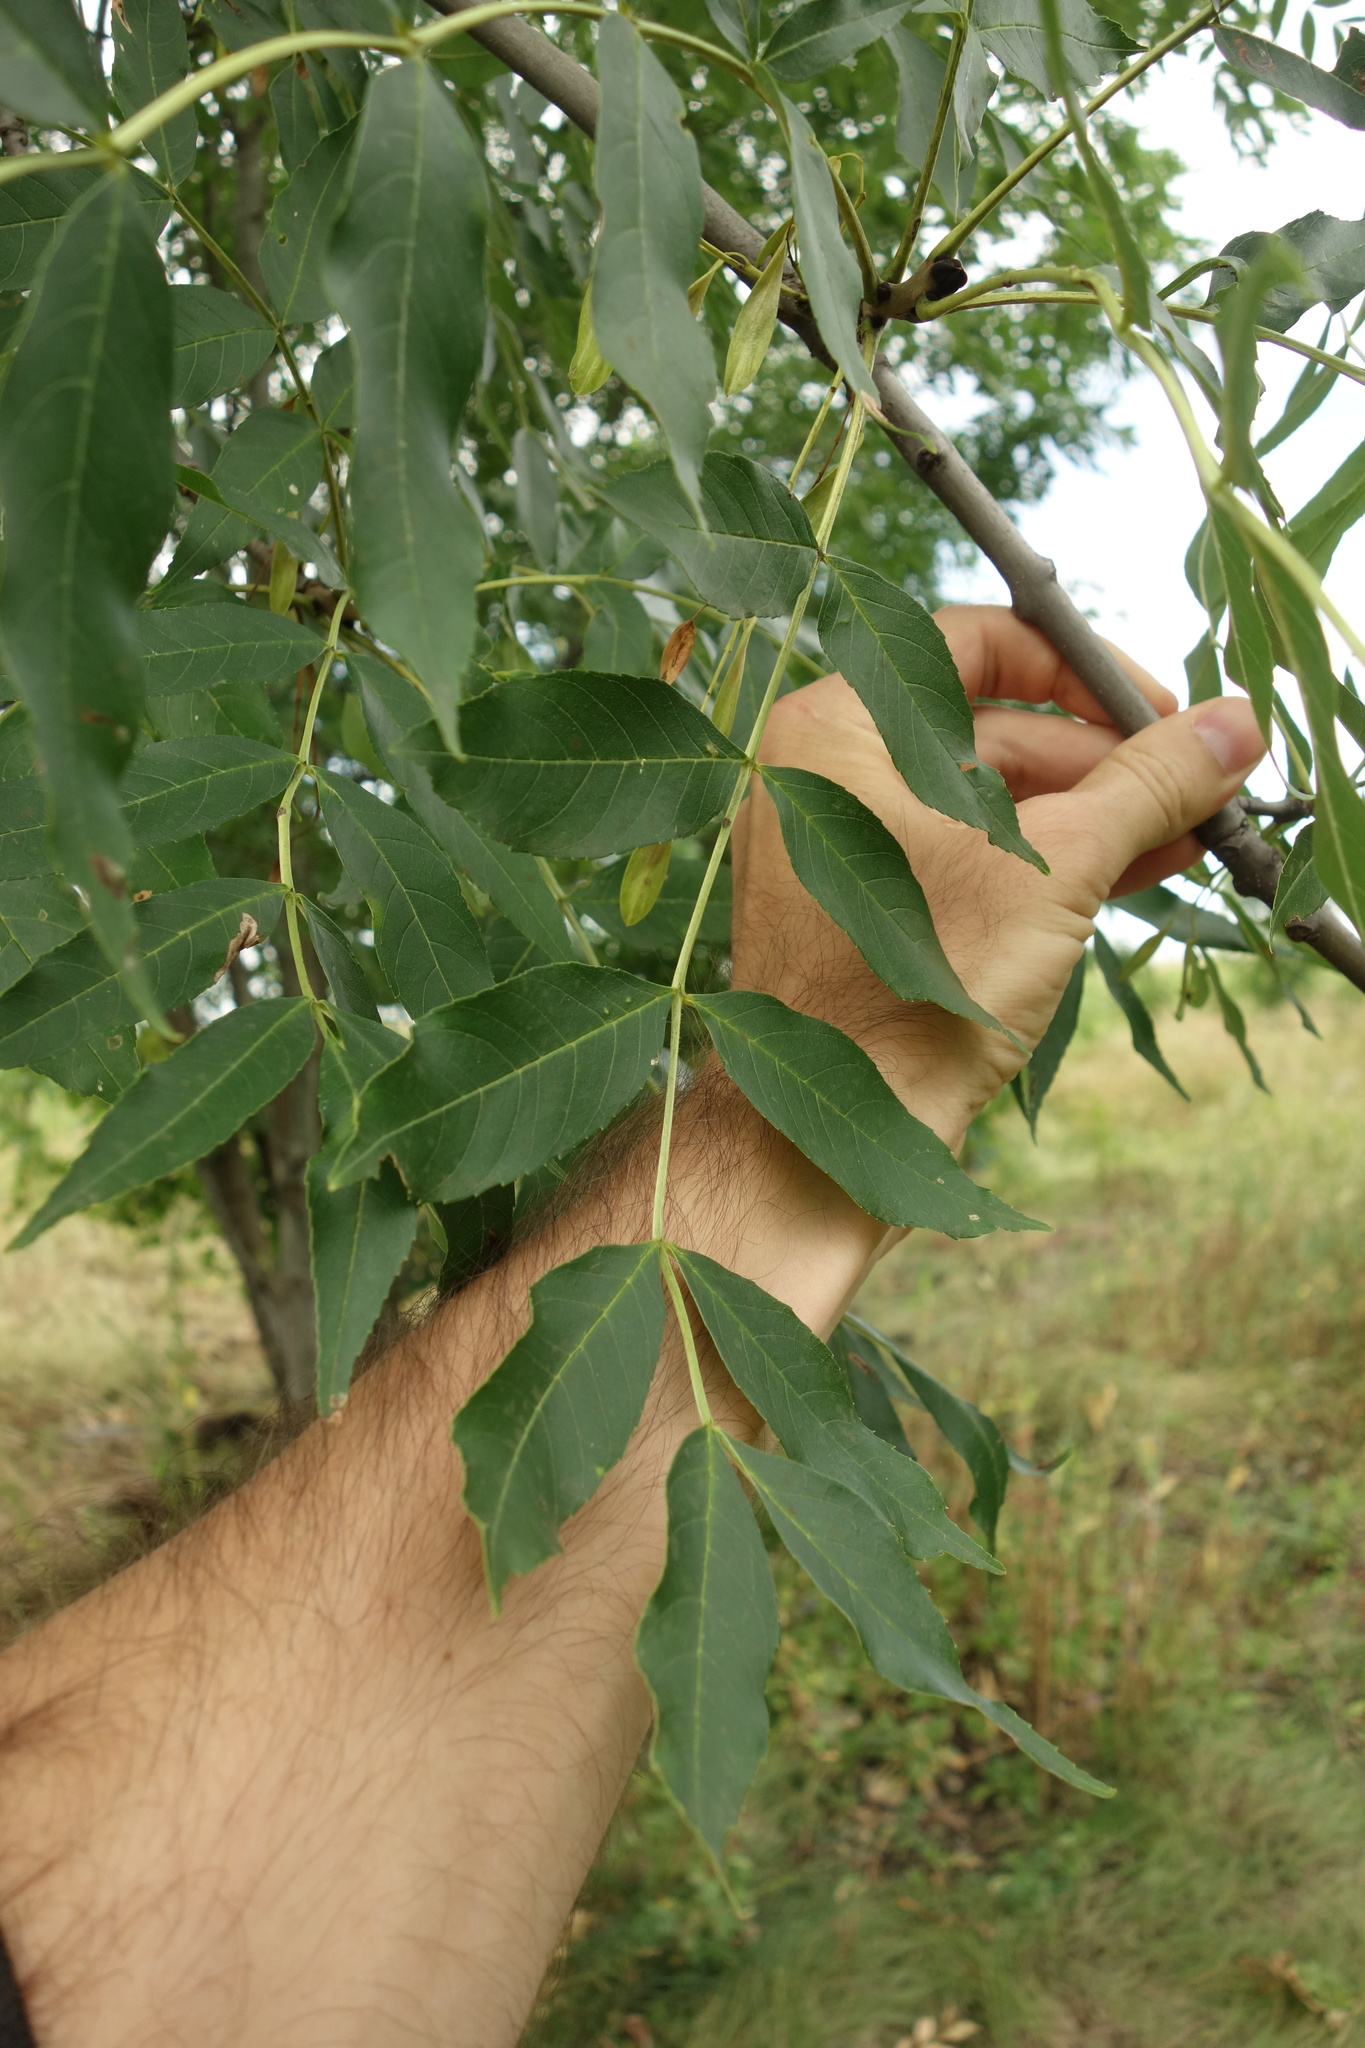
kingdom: Plantae
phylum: Tracheophyta
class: Magnoliopsida
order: Lamiales
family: Oleaceae
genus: Fraxinus
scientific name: Fraxinus excelsior
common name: European ash
